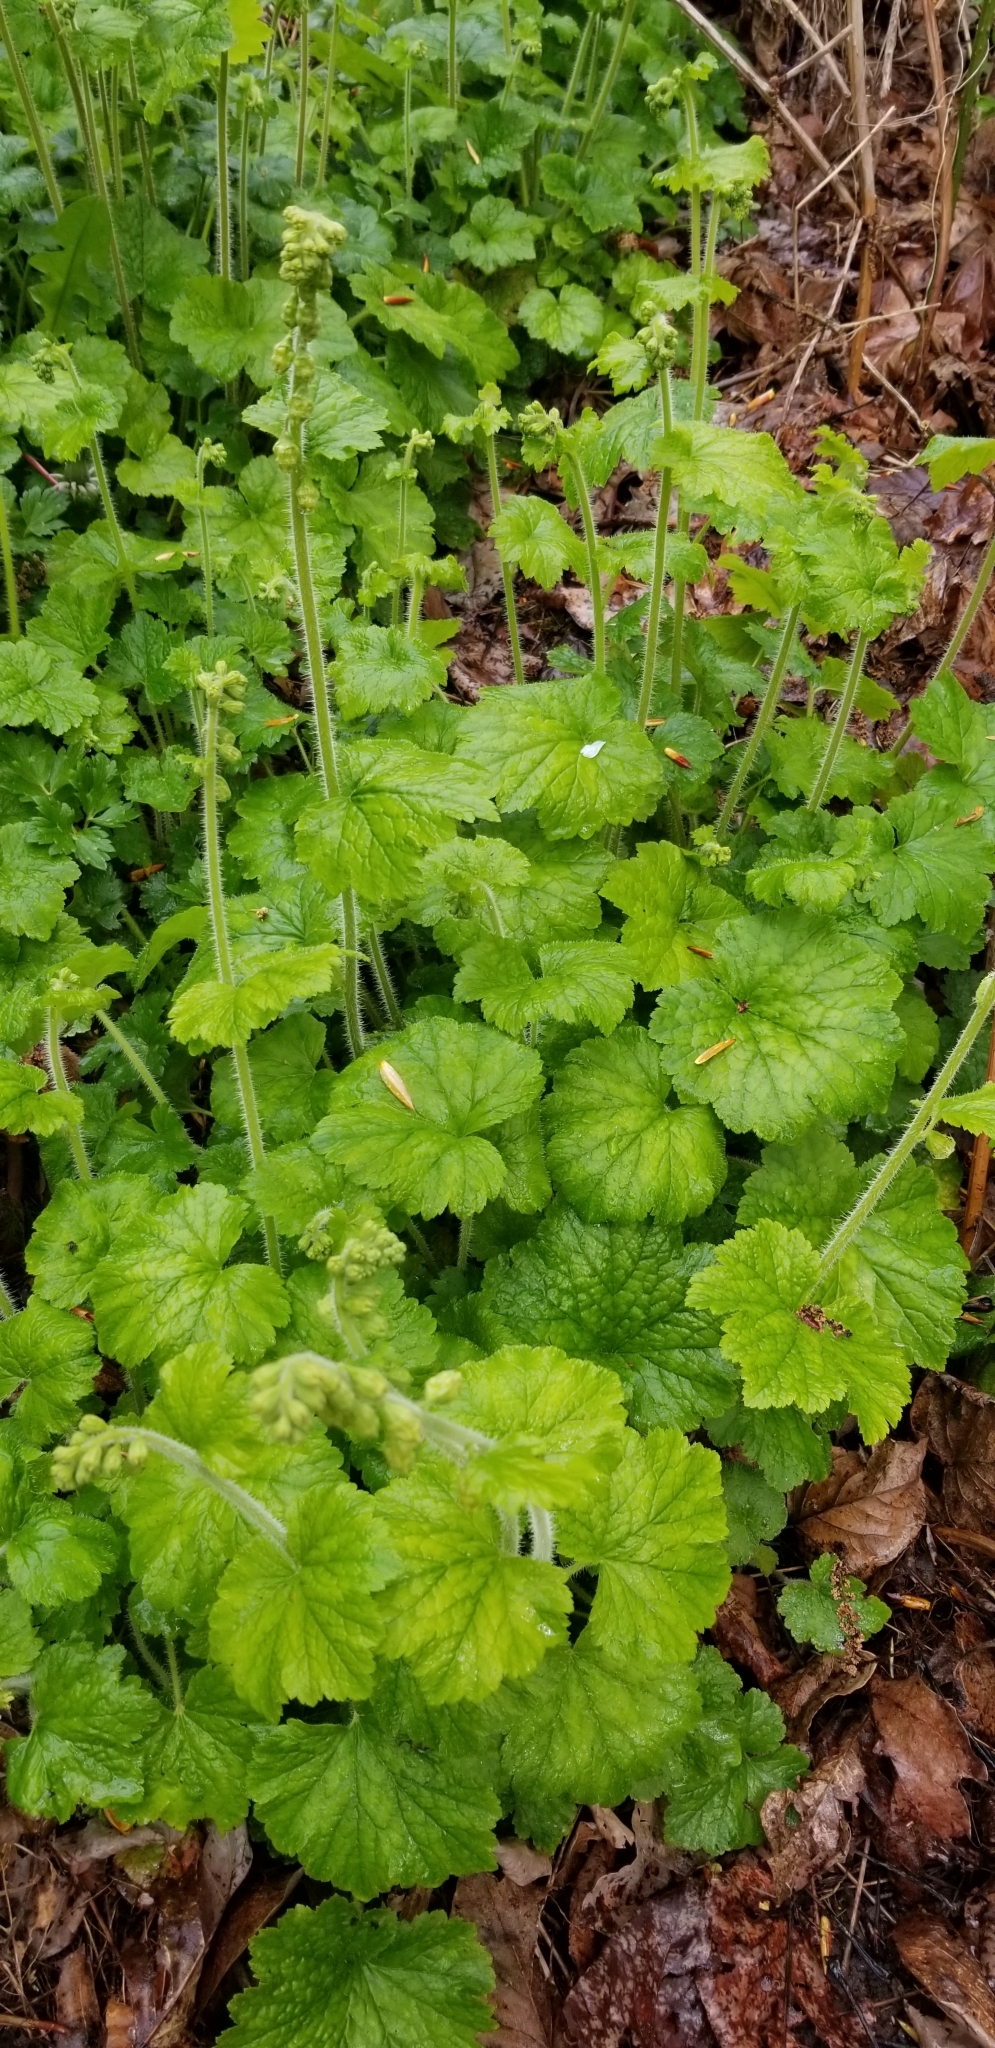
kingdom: Plantae
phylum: Tracheophyta
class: Magnoliopsida
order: Saxifragales
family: Saxifragaceae
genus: Tellima
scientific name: Tellima grandiflora
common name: Fringecups
